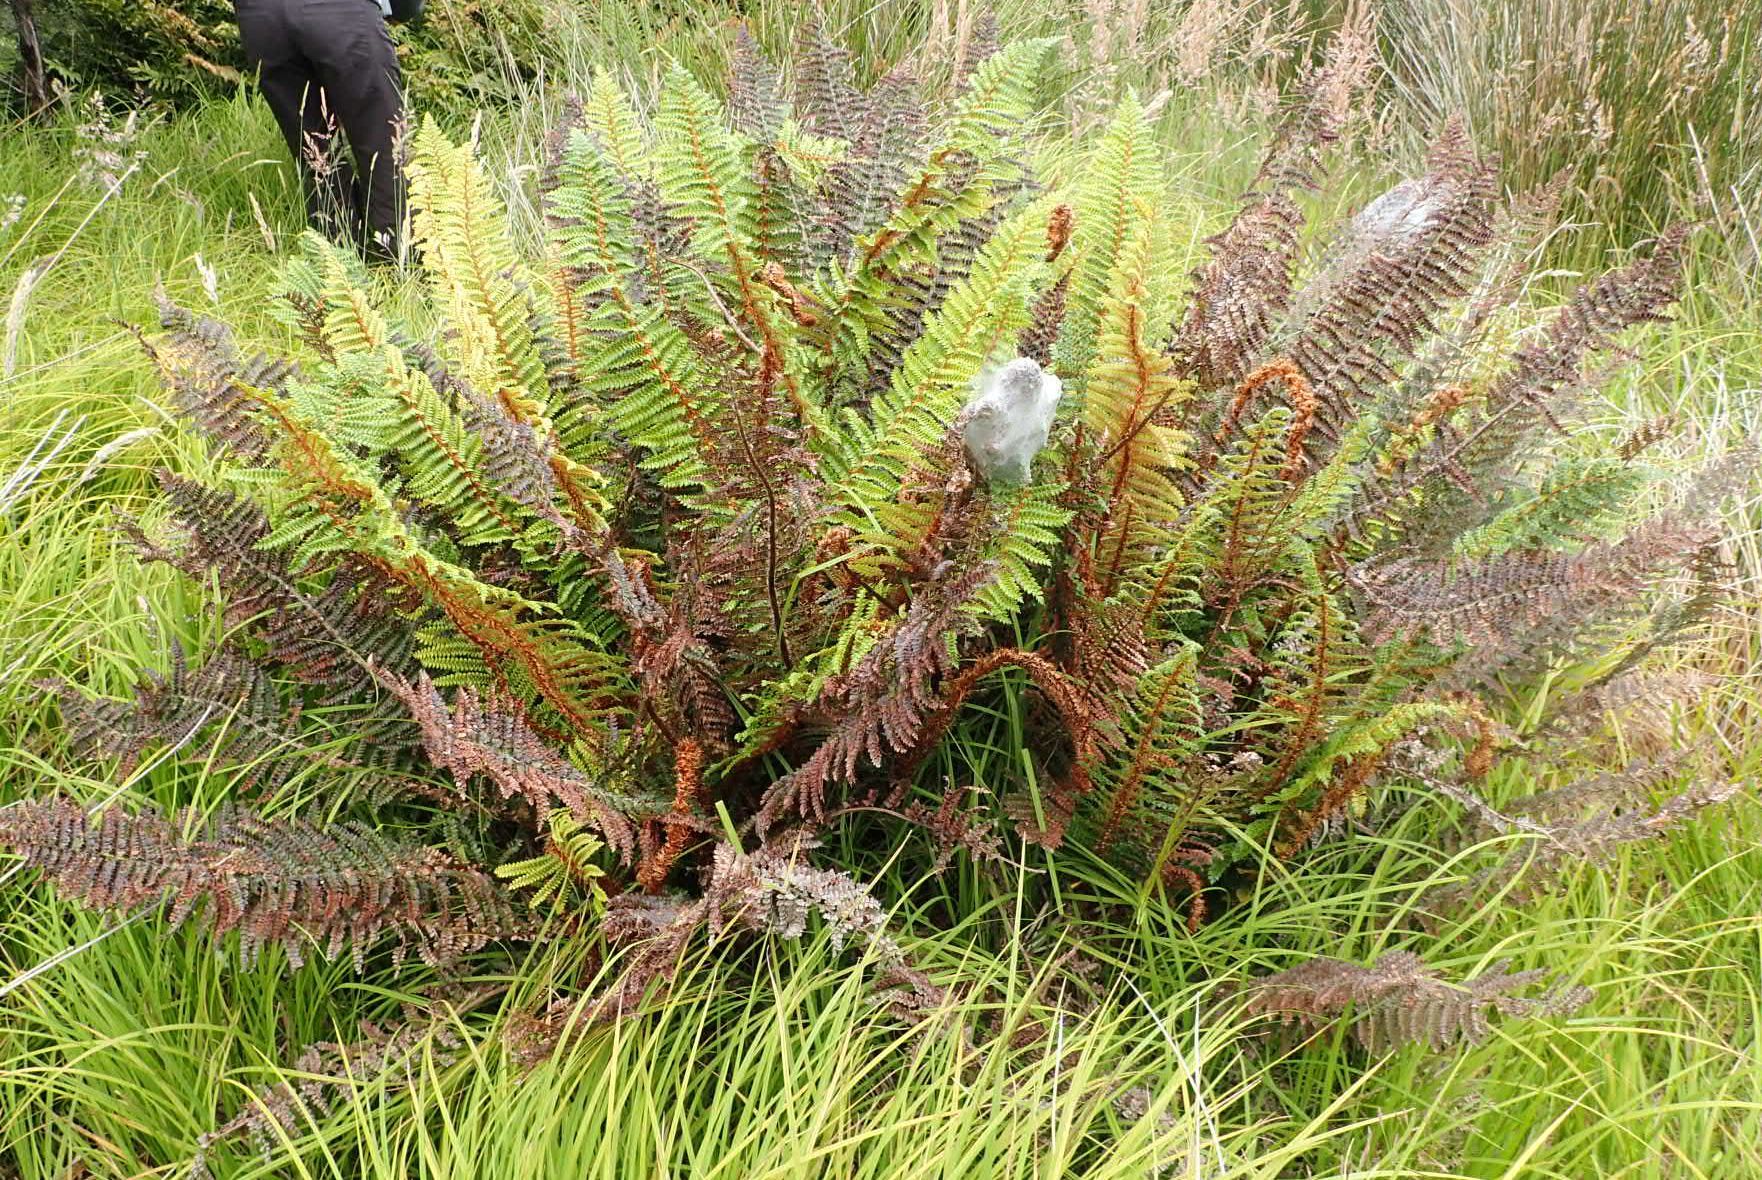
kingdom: Plantae
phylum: Tracheophyta
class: Polypodiopsida
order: Polypodiales
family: Dryopteridaceae
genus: Polystichum
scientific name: Polystichum vestitum
